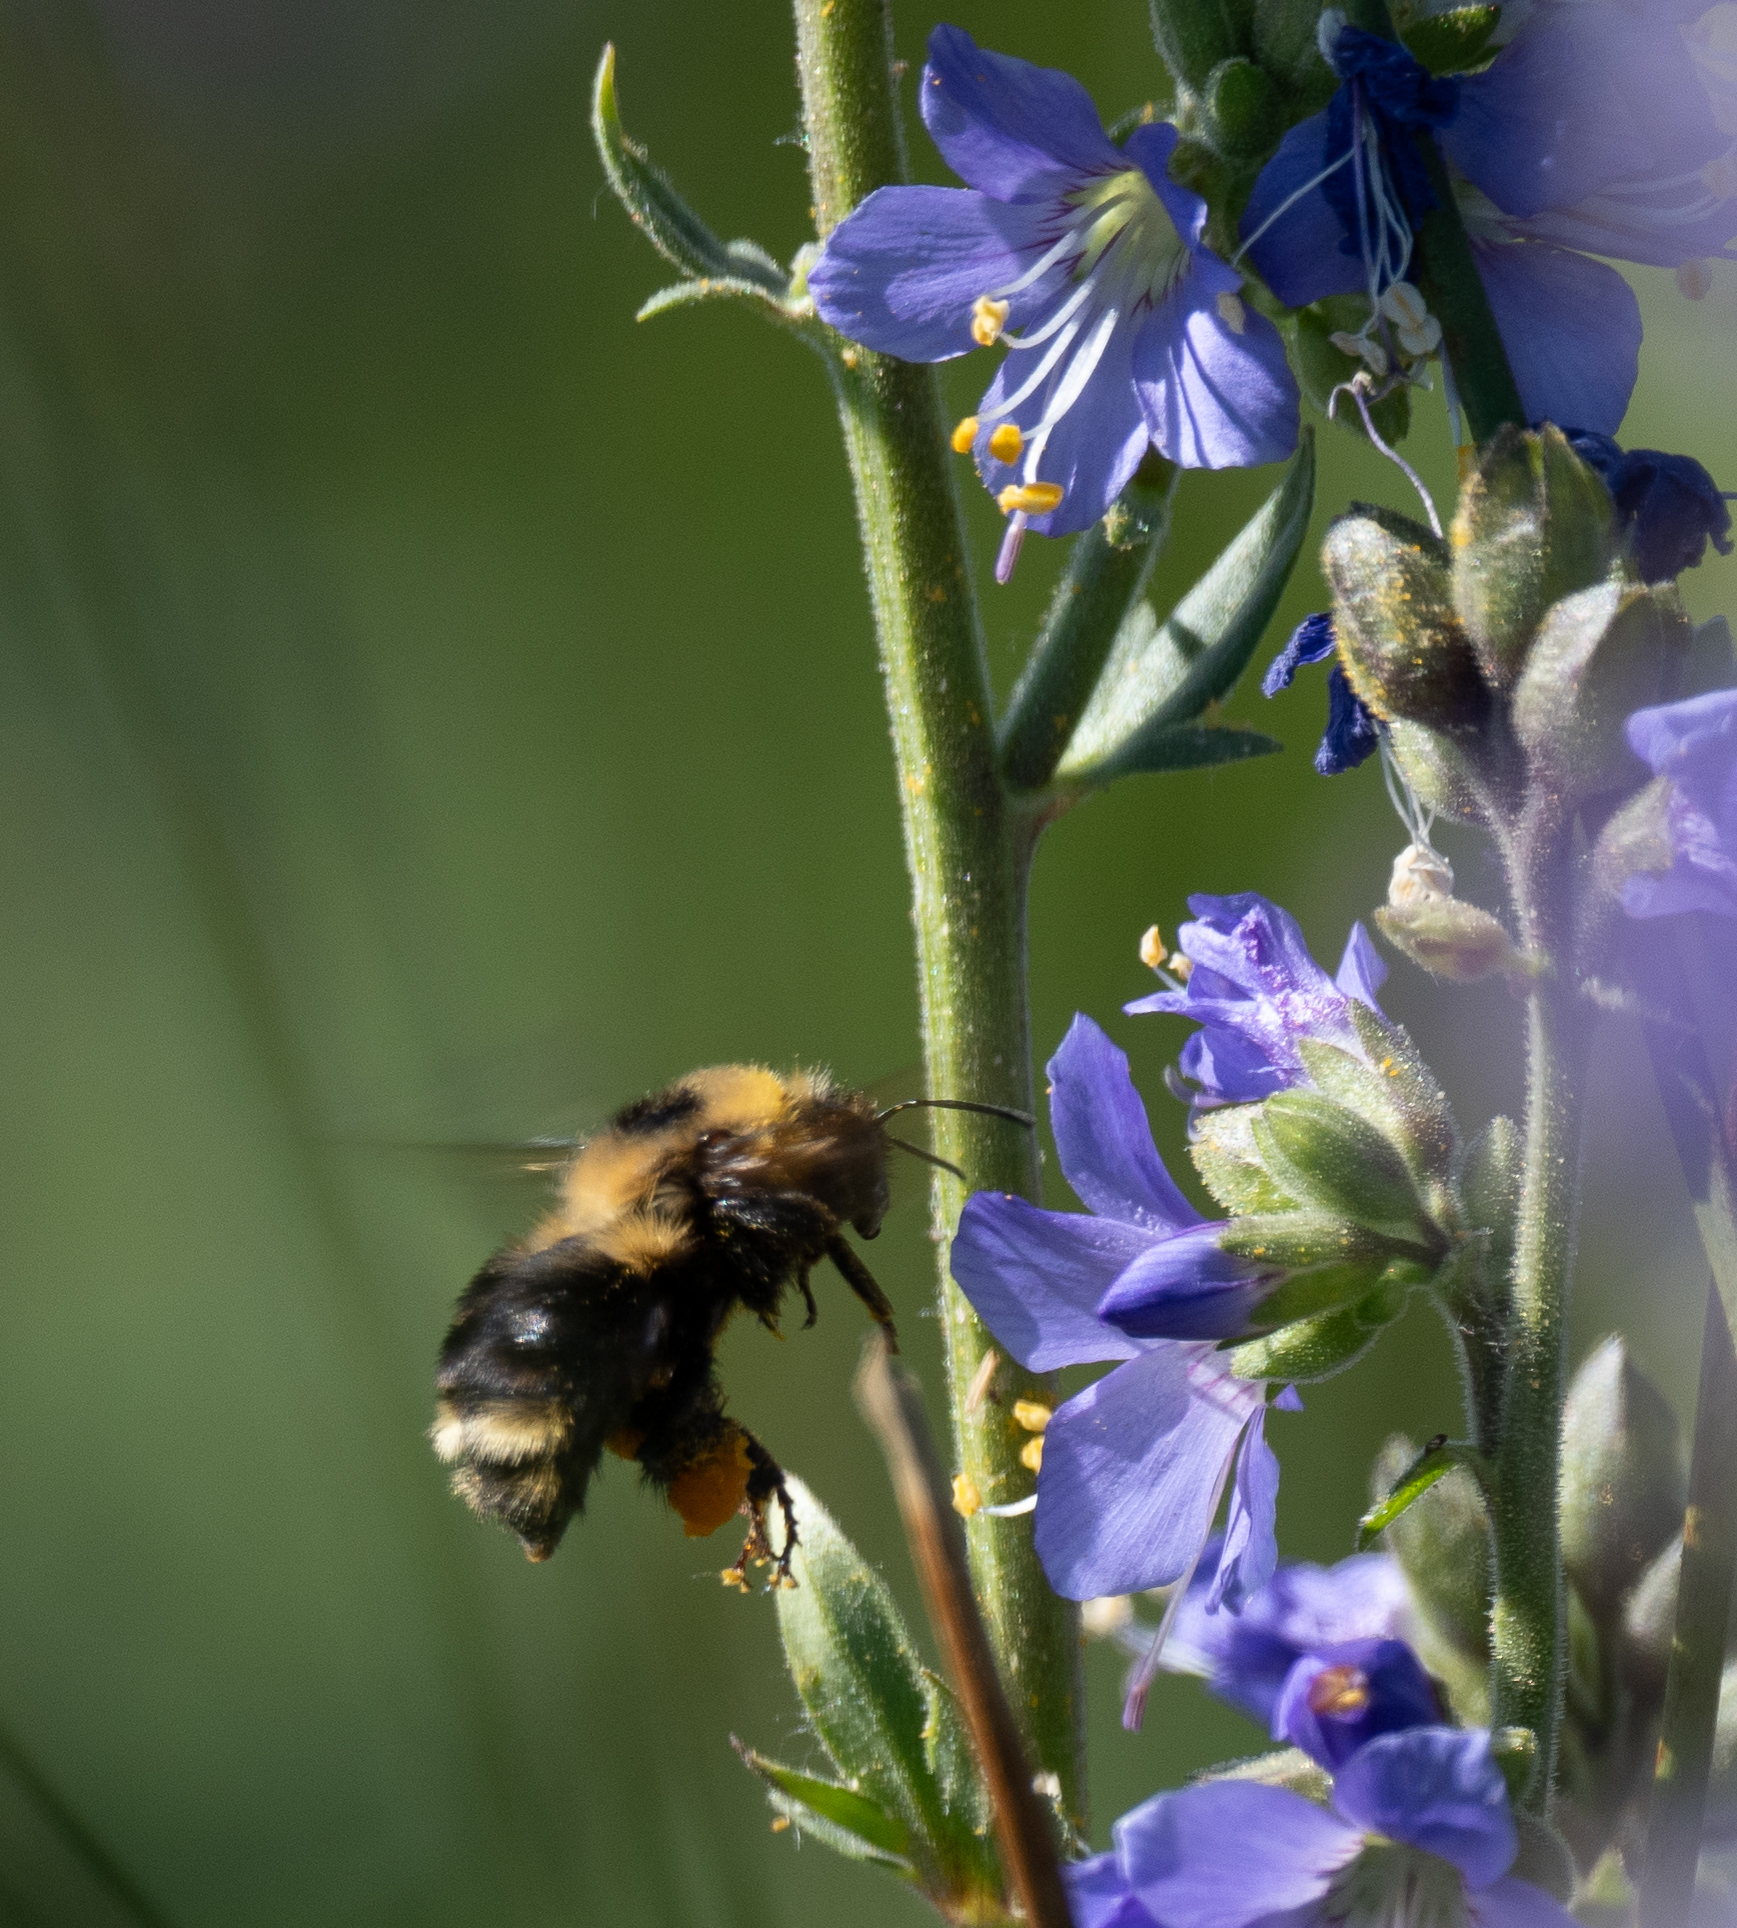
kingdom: Animalia
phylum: Arthropoda
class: Insecta
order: Hymenoptera
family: Apidae
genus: Bombus
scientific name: Bombus rufocinctus
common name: Red-belted bumble bee
